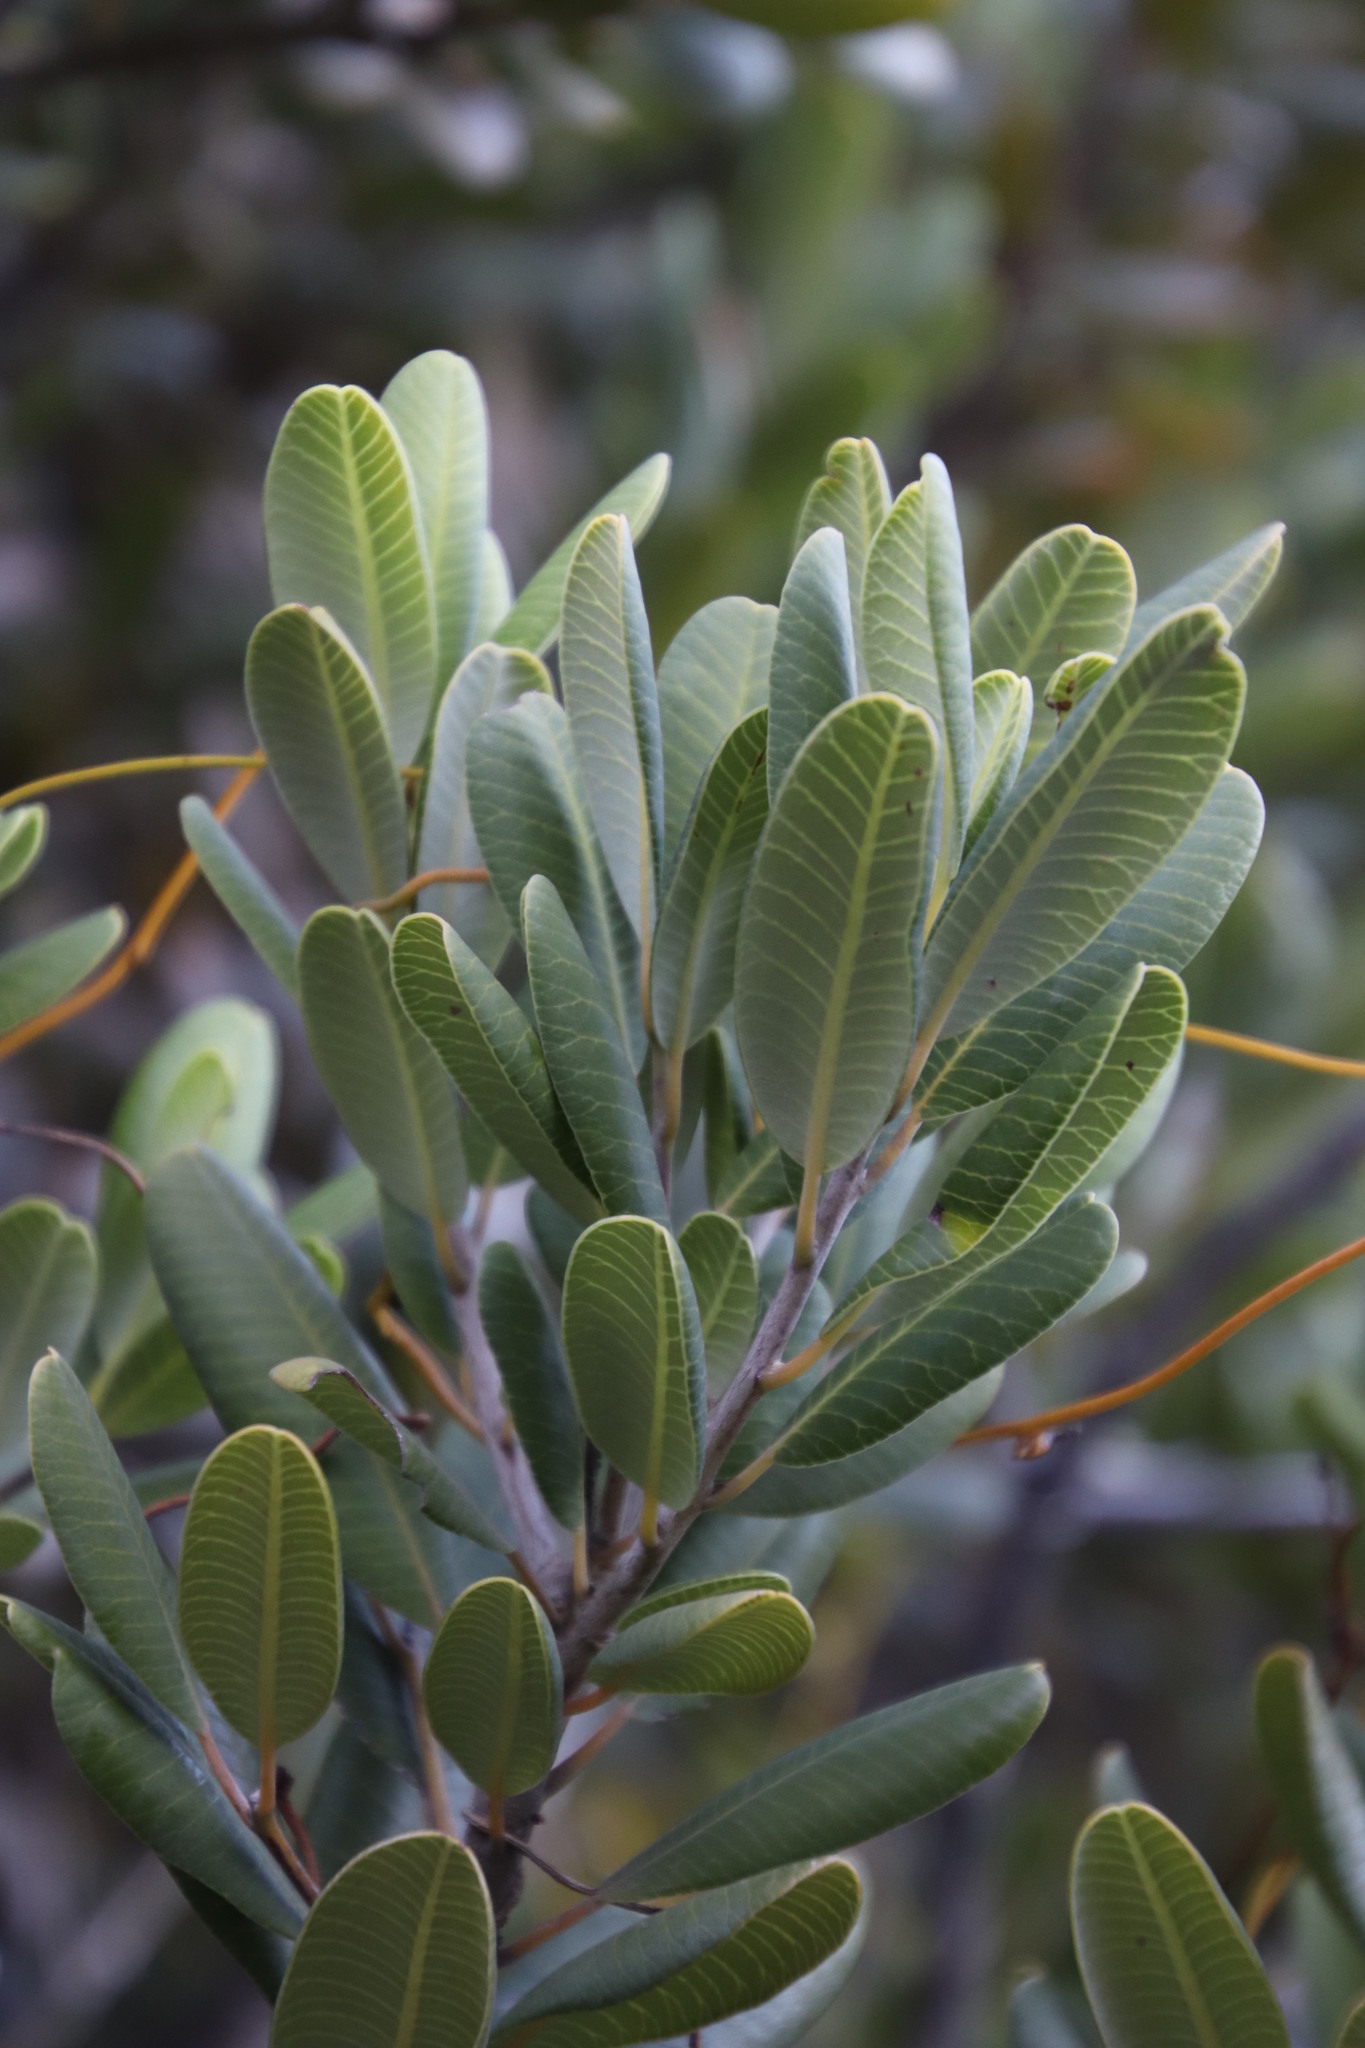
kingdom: Plantae
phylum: Tracheophyta
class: Magnoliopsida
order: Sapindales
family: Anacardiaceae
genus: Heeria
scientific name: Heeria argentea
